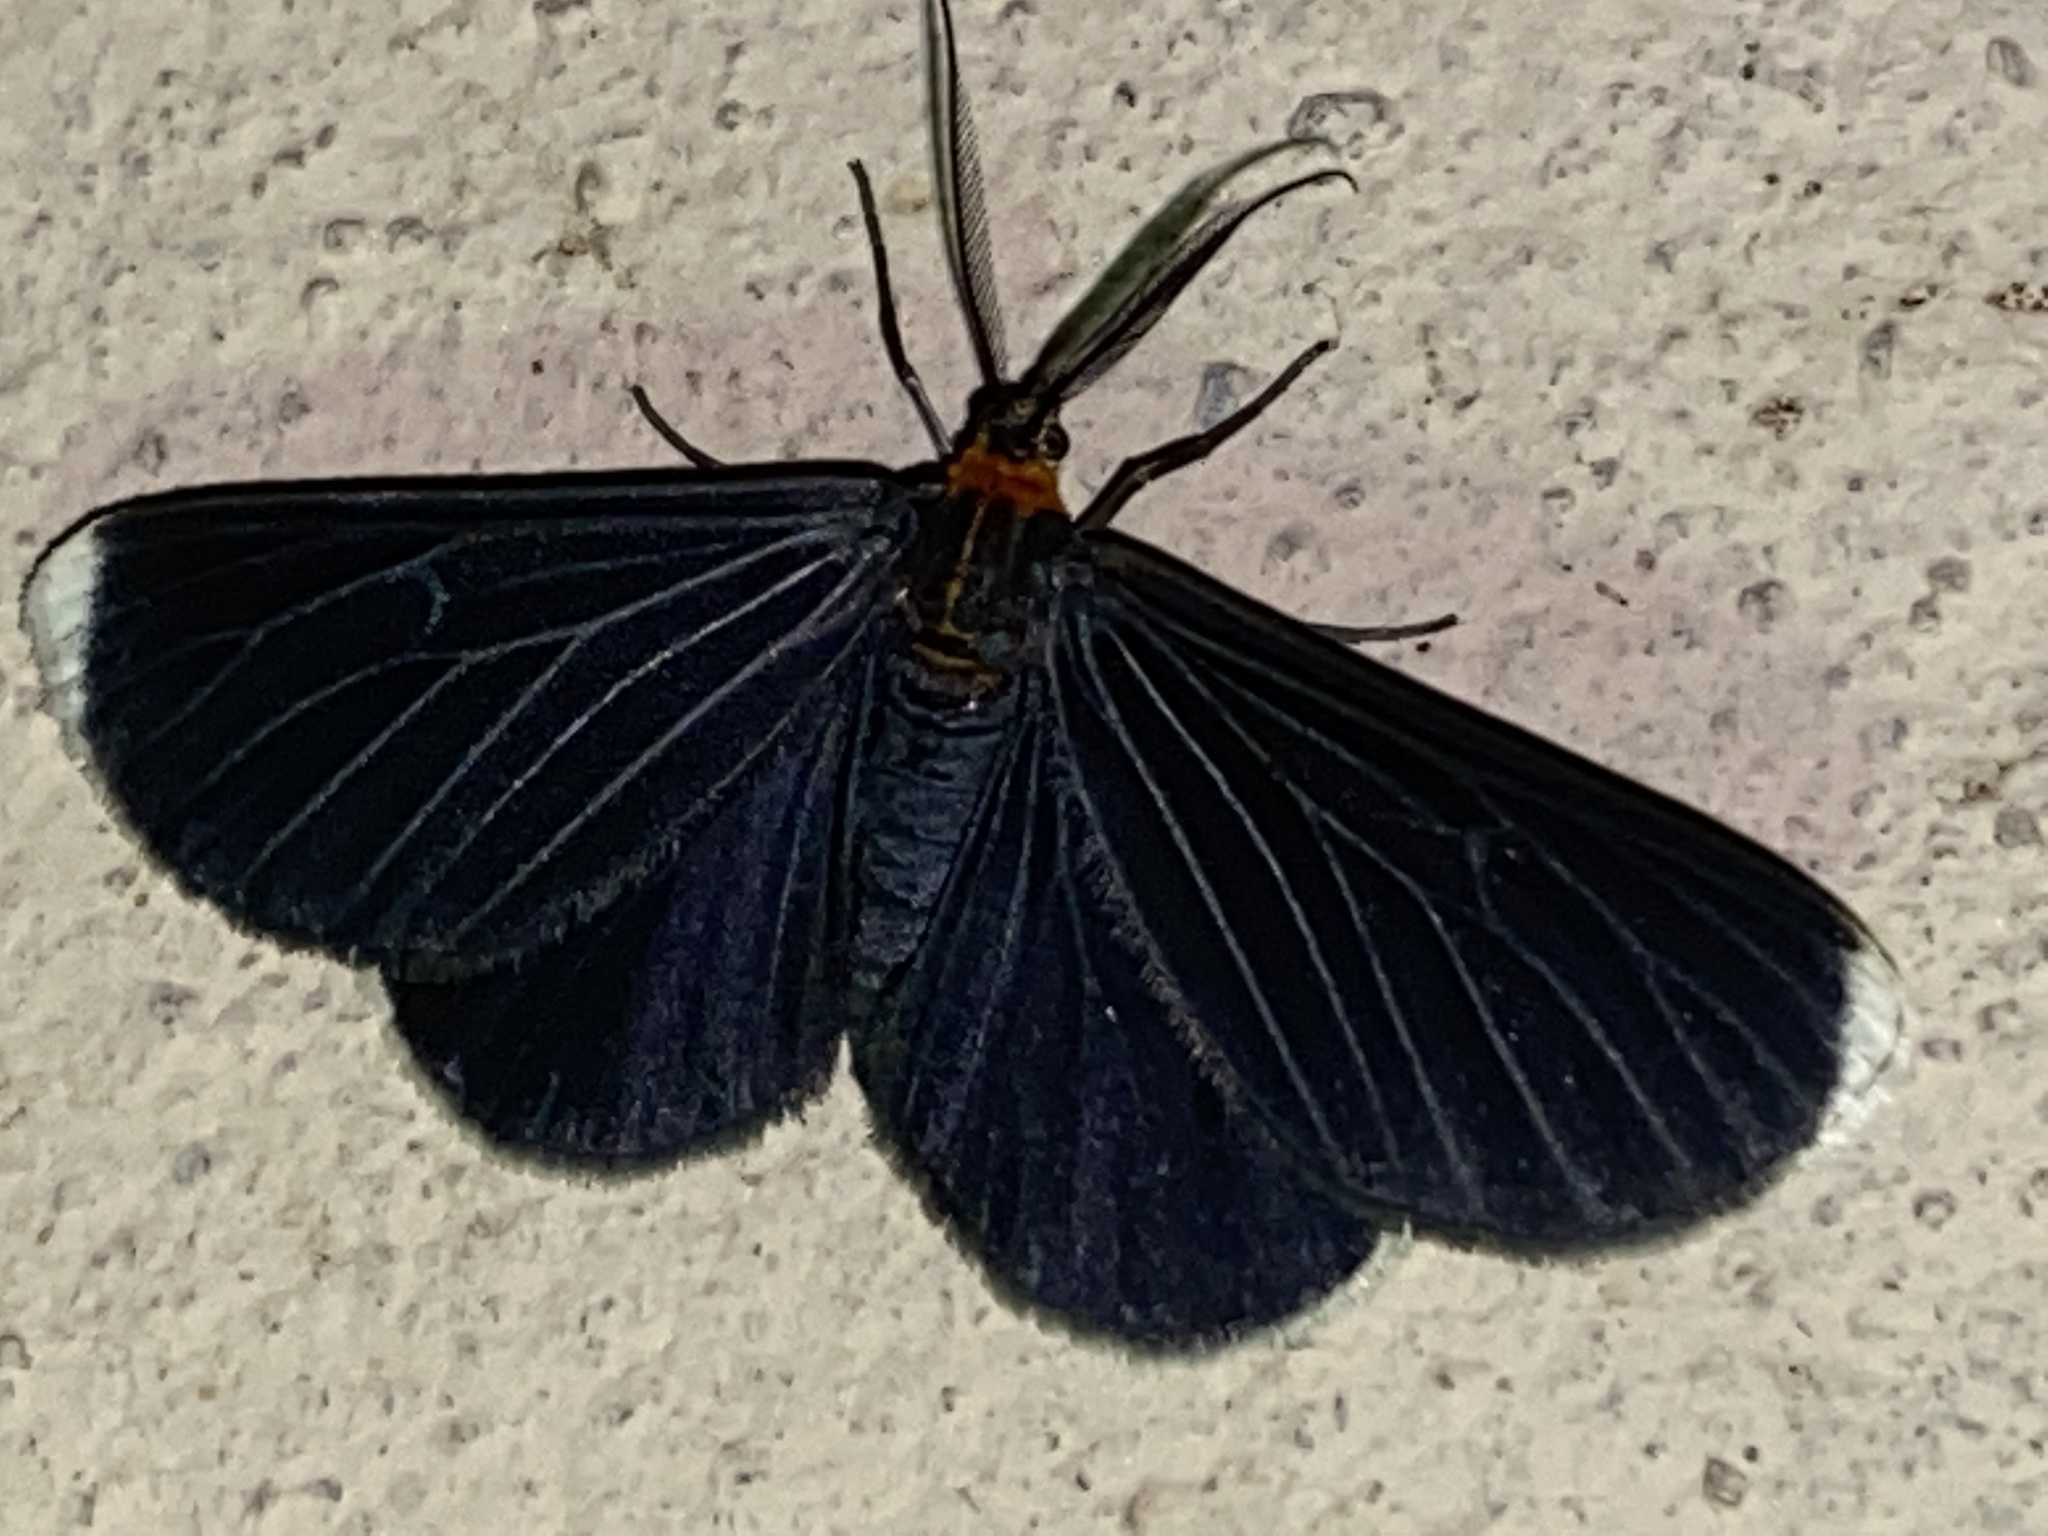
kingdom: Animalia
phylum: Arthropoda
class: Insecta
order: Lepidoptera
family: Geometridae
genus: Melanchroia
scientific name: Melanchroia chephise
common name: White-tipped black
